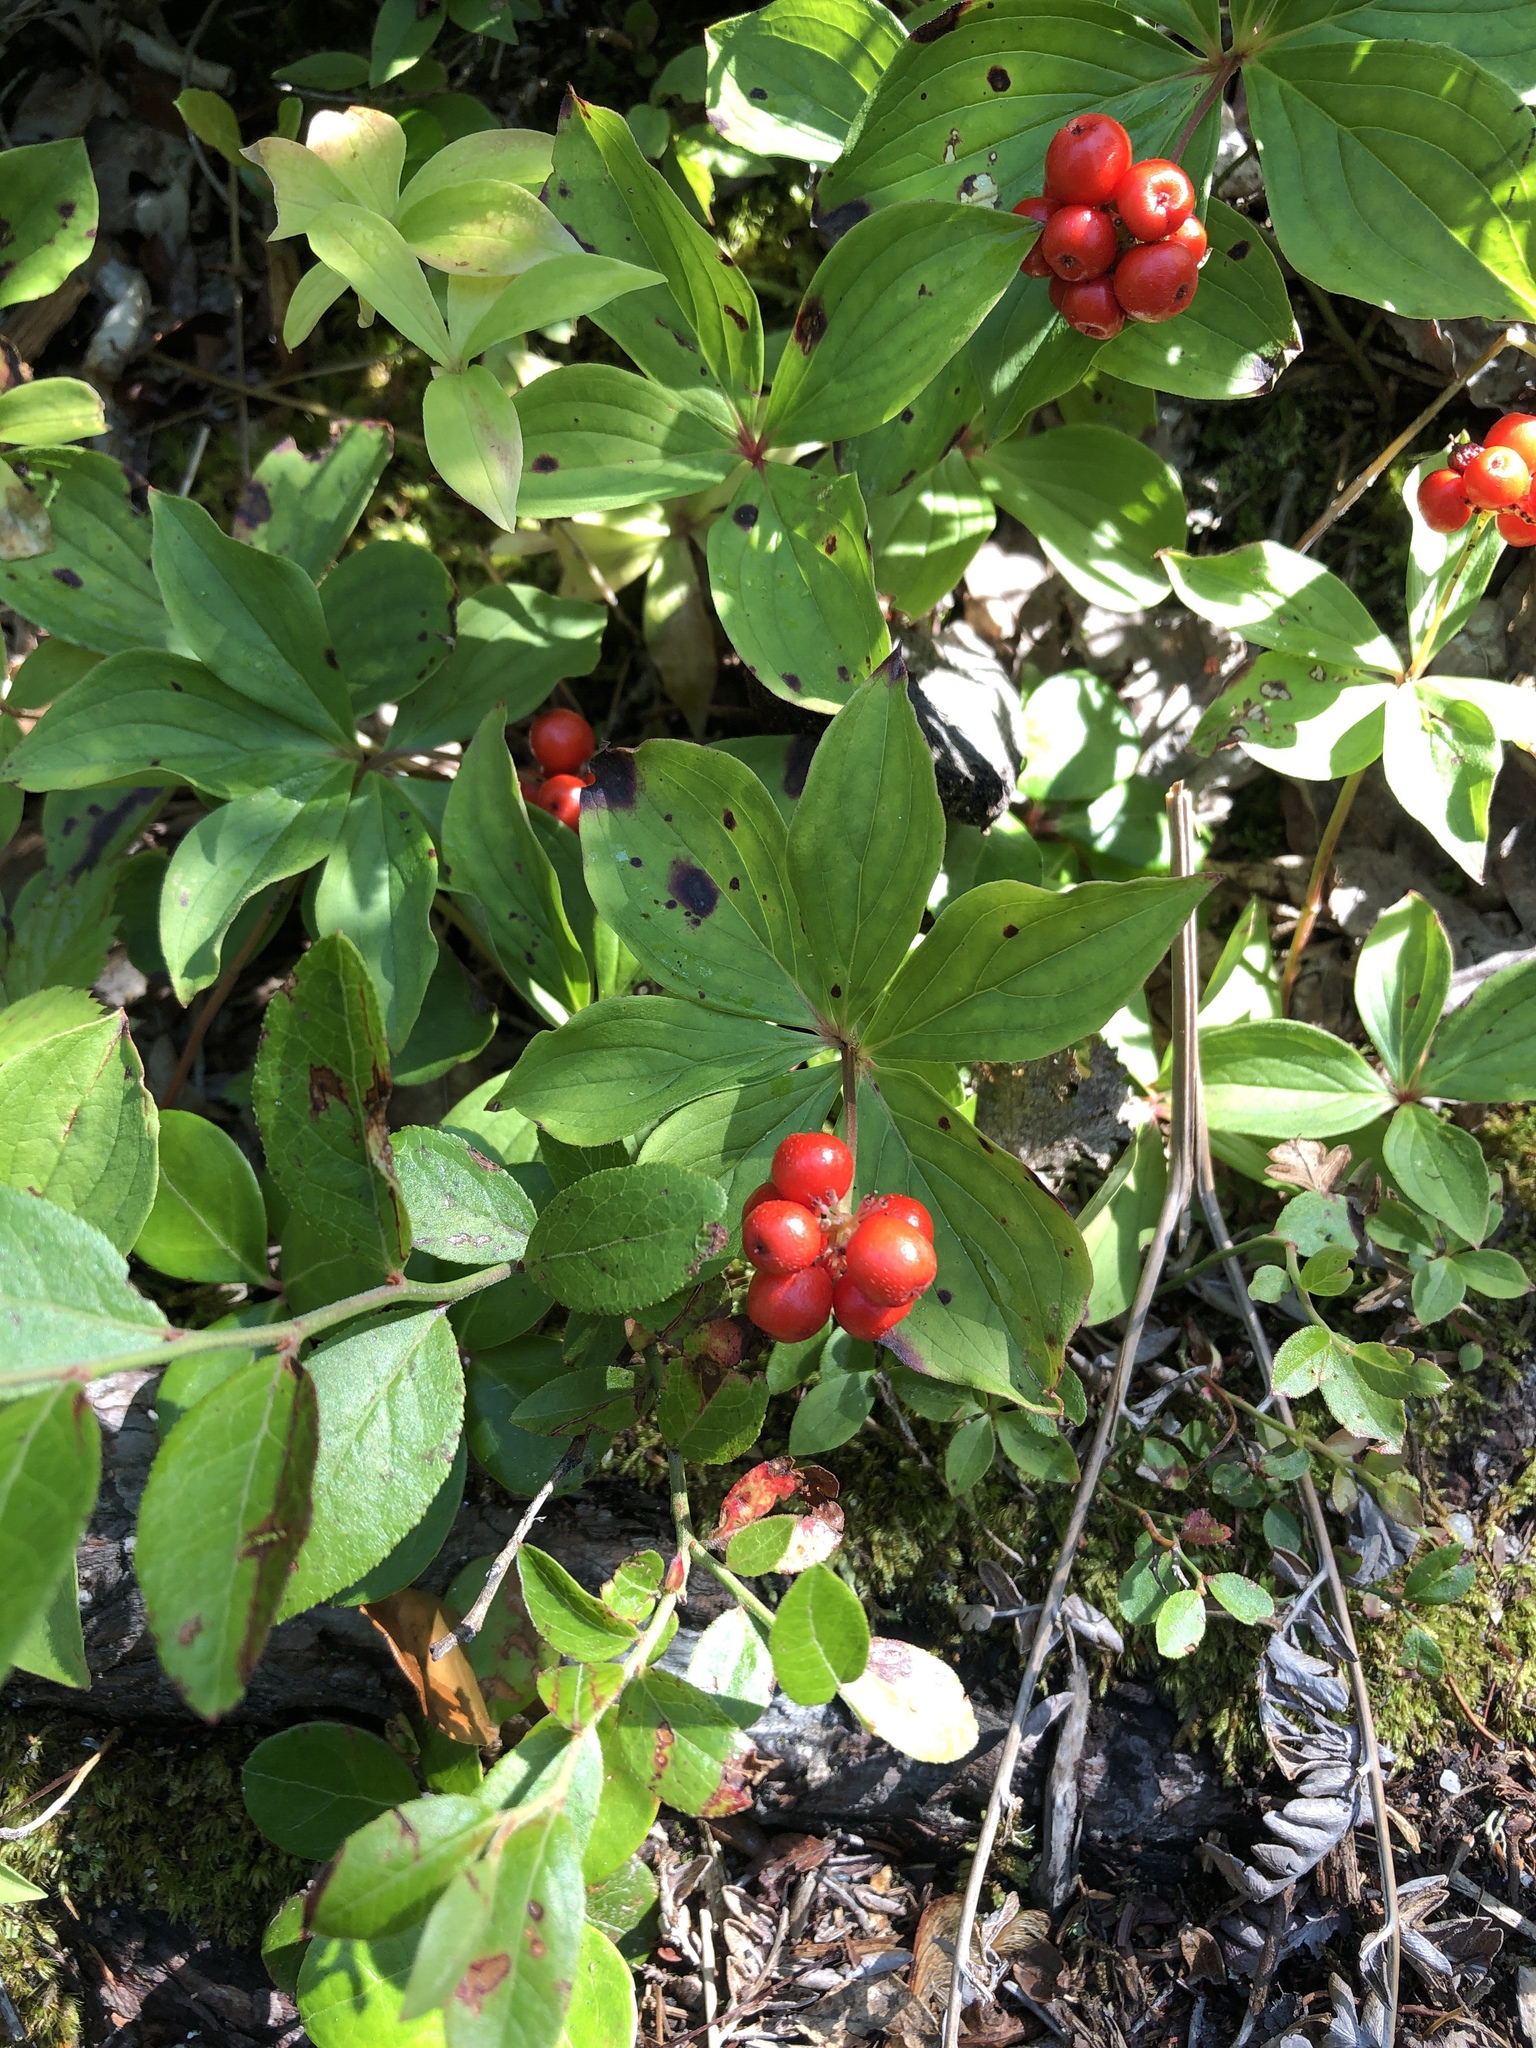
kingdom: Plantae
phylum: Tracheophyta
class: Magnoliopsida
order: Cornales
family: Cornaceae
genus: Cornus
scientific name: Cornus canadensis
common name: Creeping dogwood
